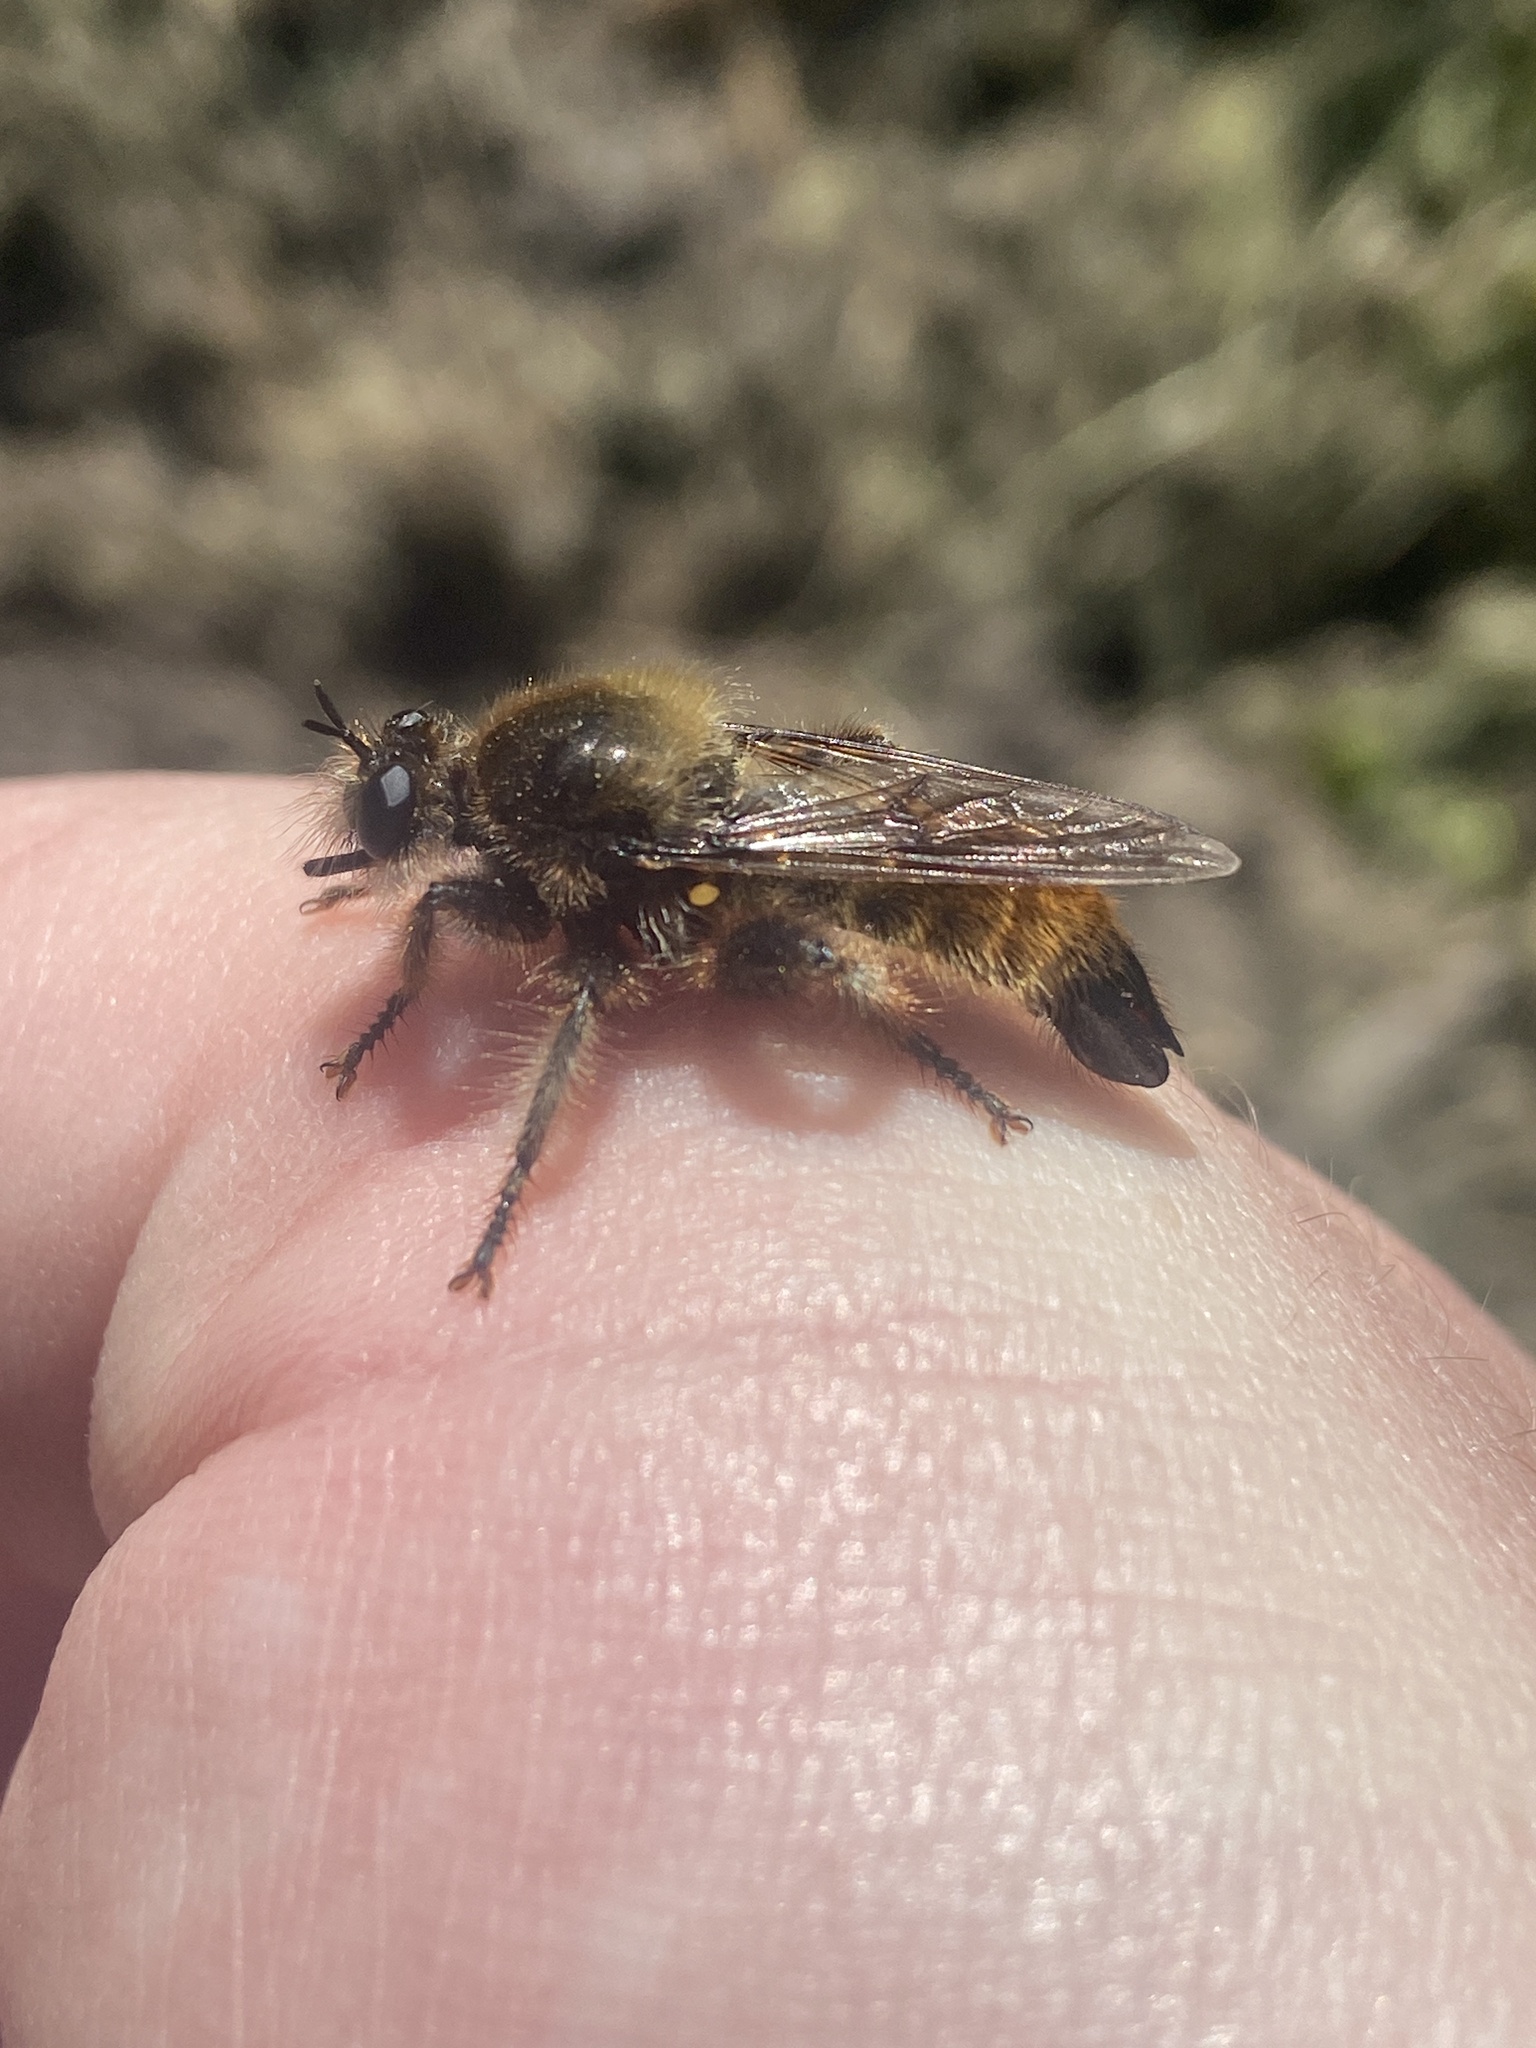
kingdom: Animalia
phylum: Arthropoda
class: Insecta
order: Diptera
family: Asilidae
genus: Laphria
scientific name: Laphria flava
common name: Bumblebee robberfly
